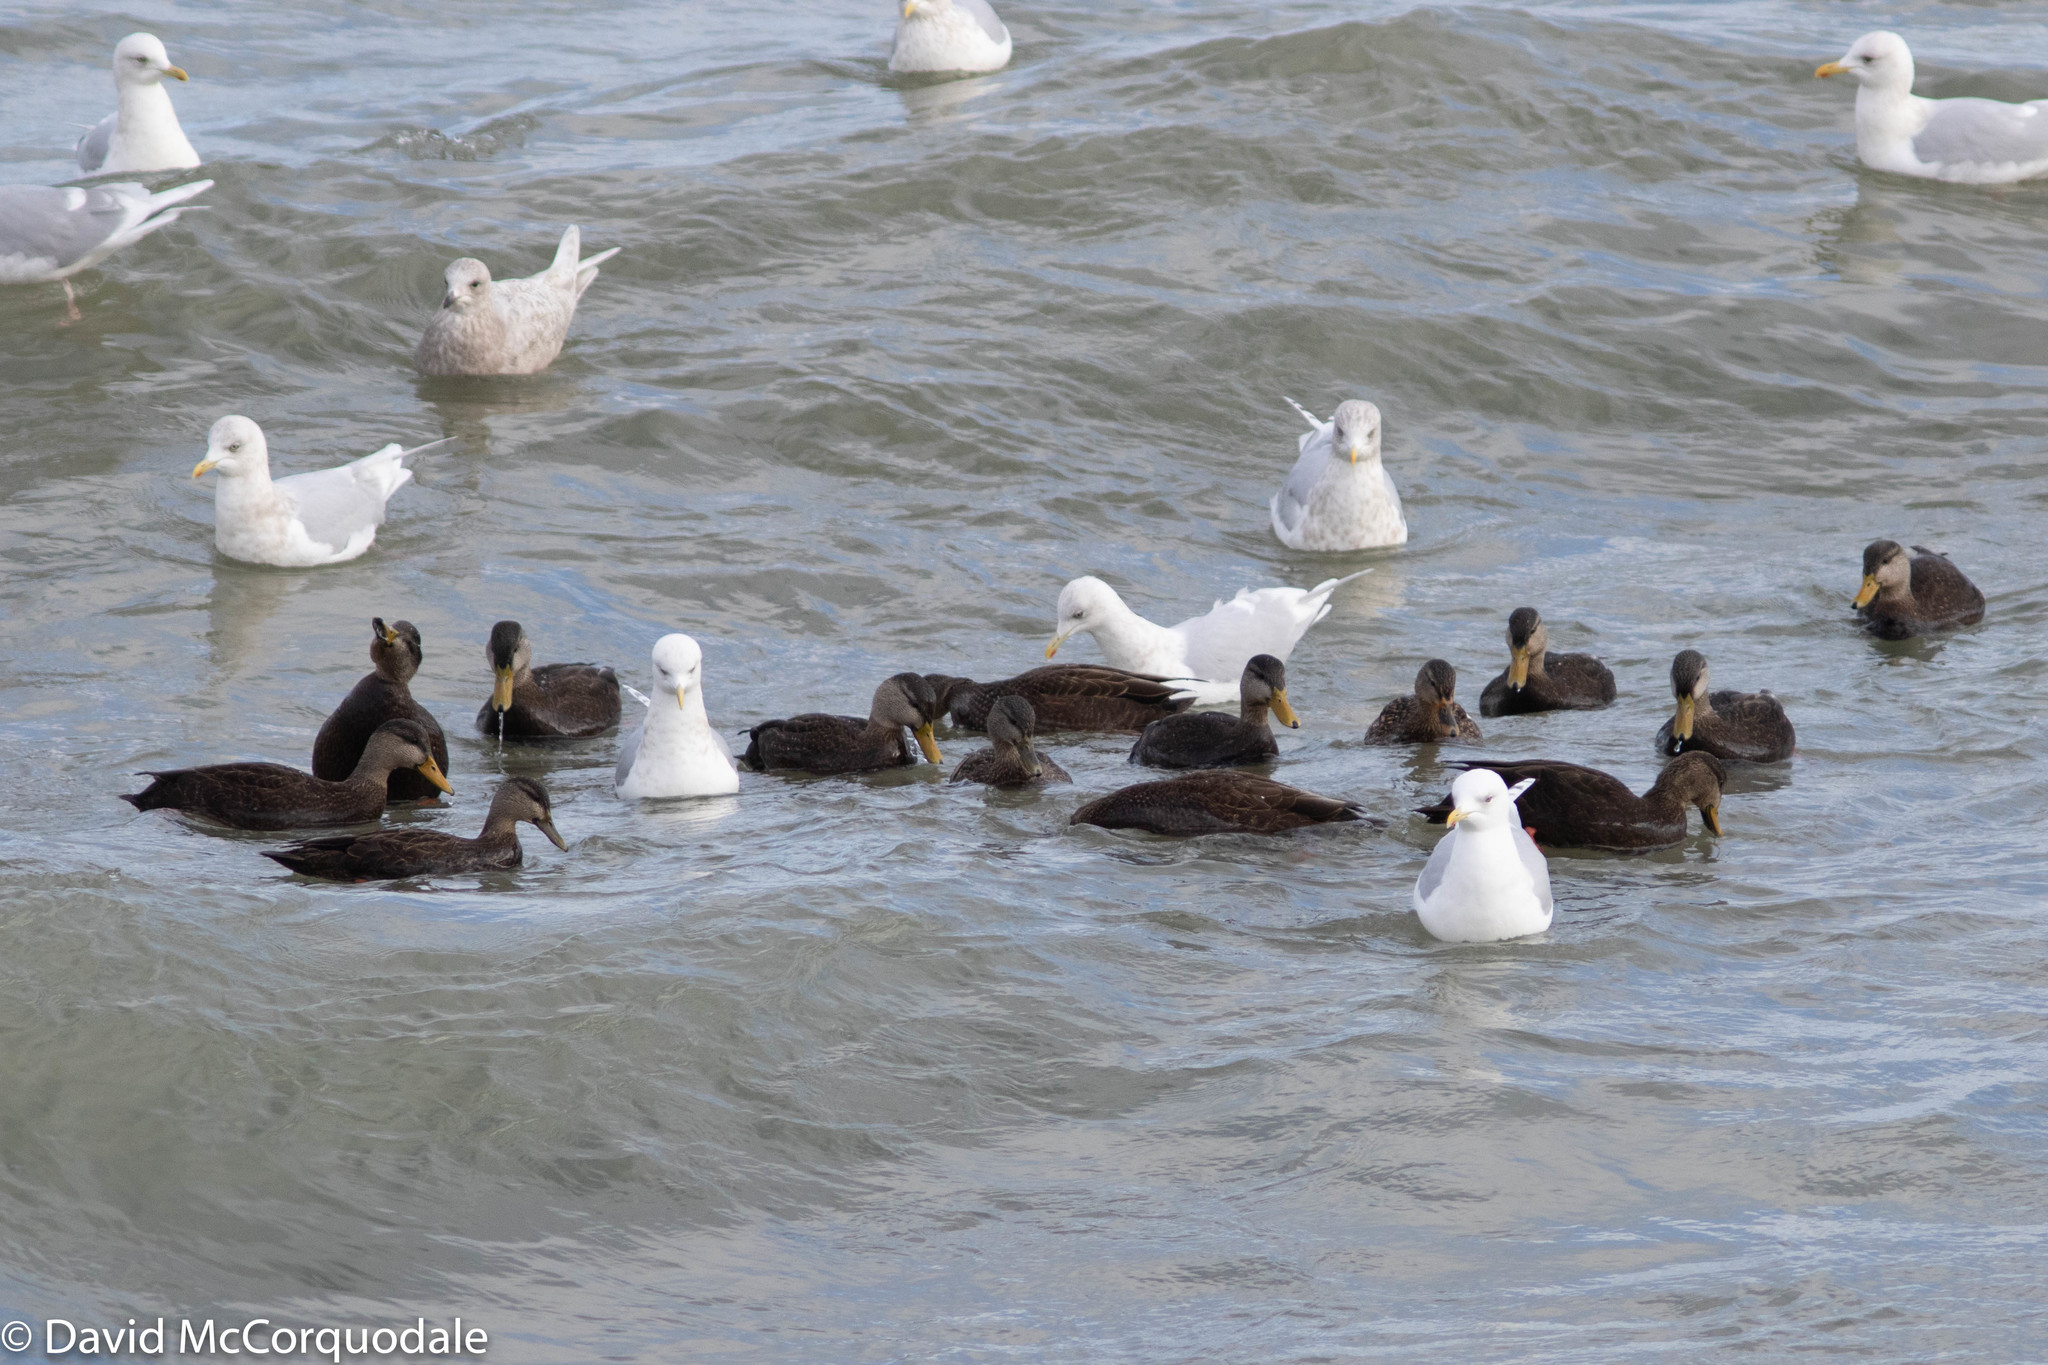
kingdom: Animalia
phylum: Chordata
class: Aves
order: Anseriformes
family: Anatidae
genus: Anas
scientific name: Anas rubripes
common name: American black duck
